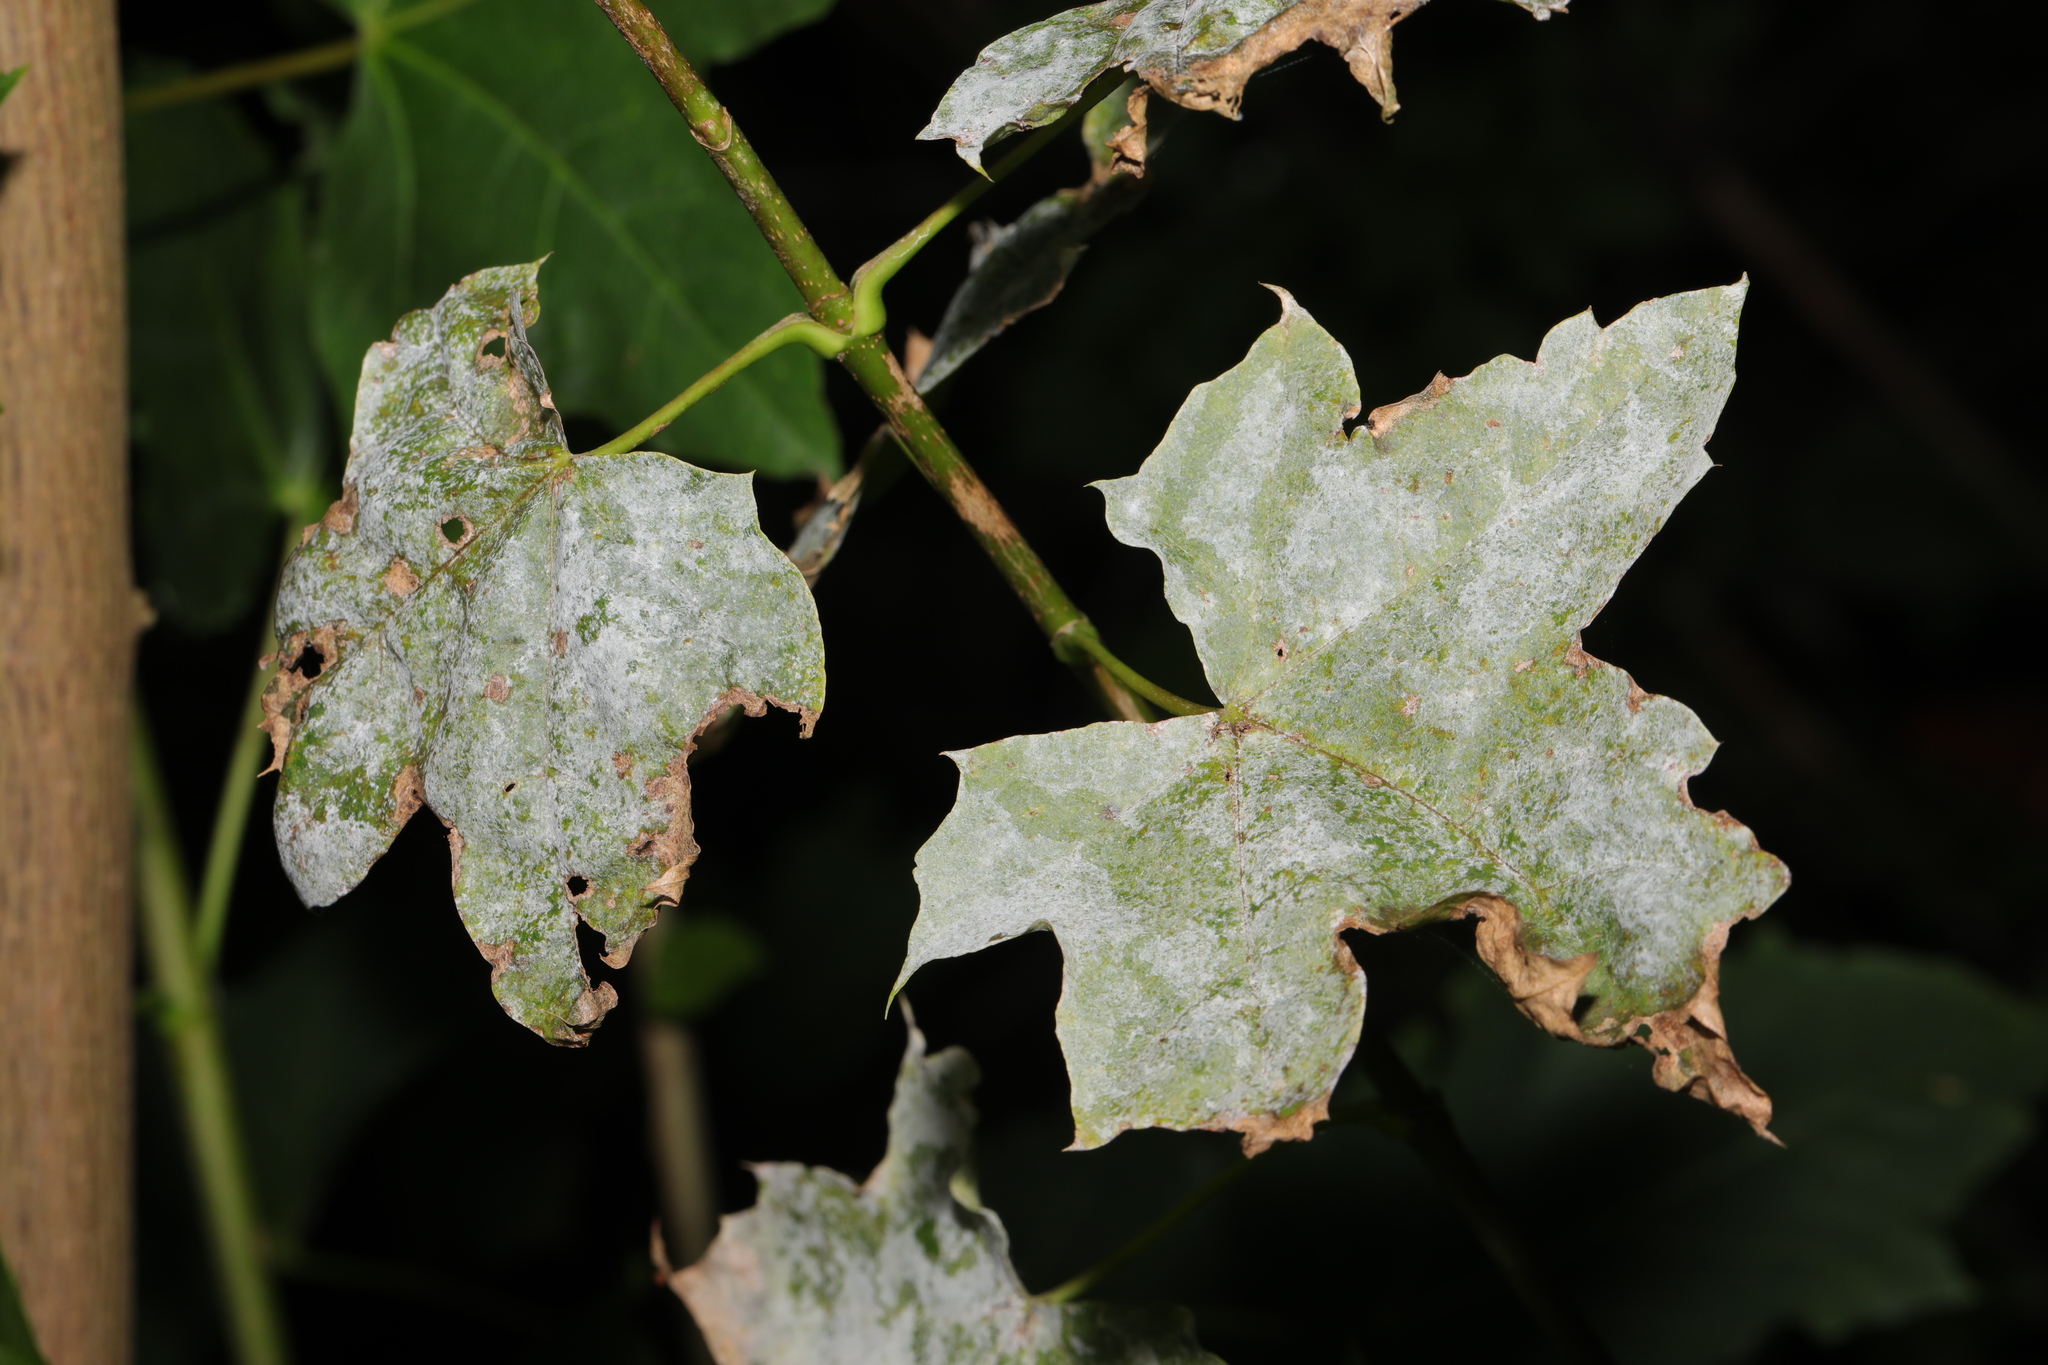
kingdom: Plantae
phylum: Tracheophyta
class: Magnoliopsida
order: Sapindales
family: Sapindaceae
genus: Acer
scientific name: Acer platanoides
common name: Norway maple
